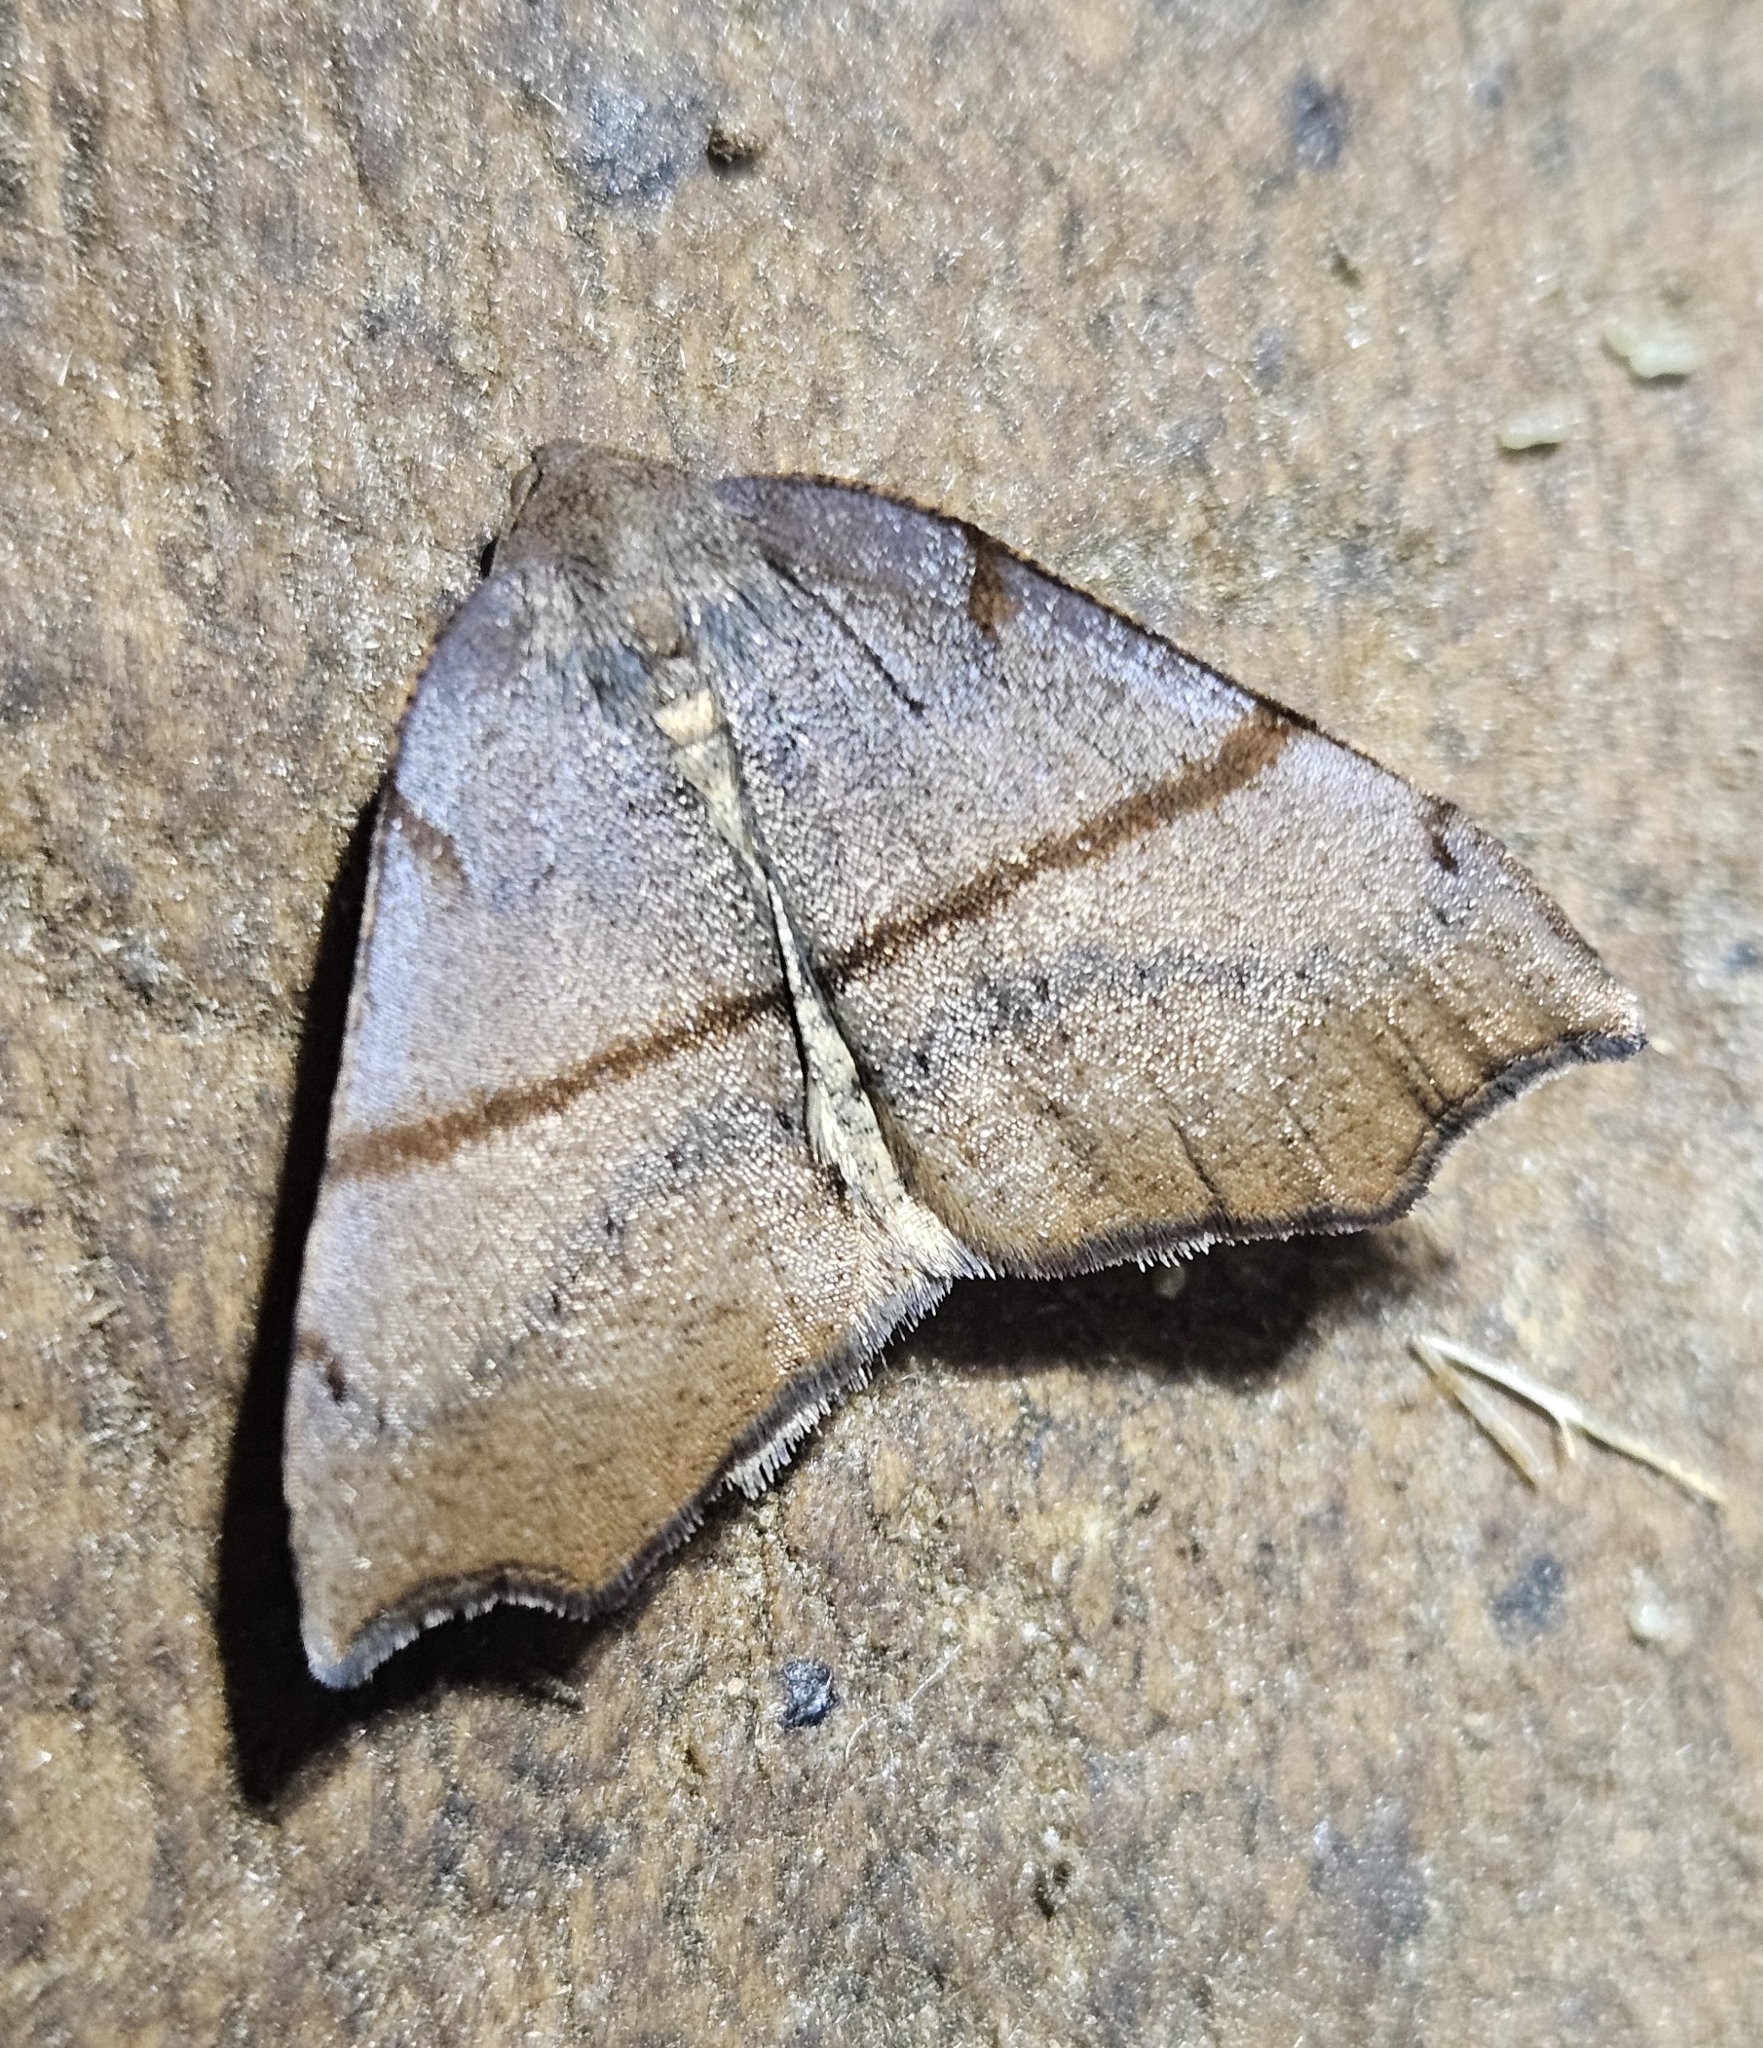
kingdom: Animalia
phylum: Arthropoda
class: Insecta
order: Lepidoptera
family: Geometridae
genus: Sestra
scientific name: Sestra flexata
